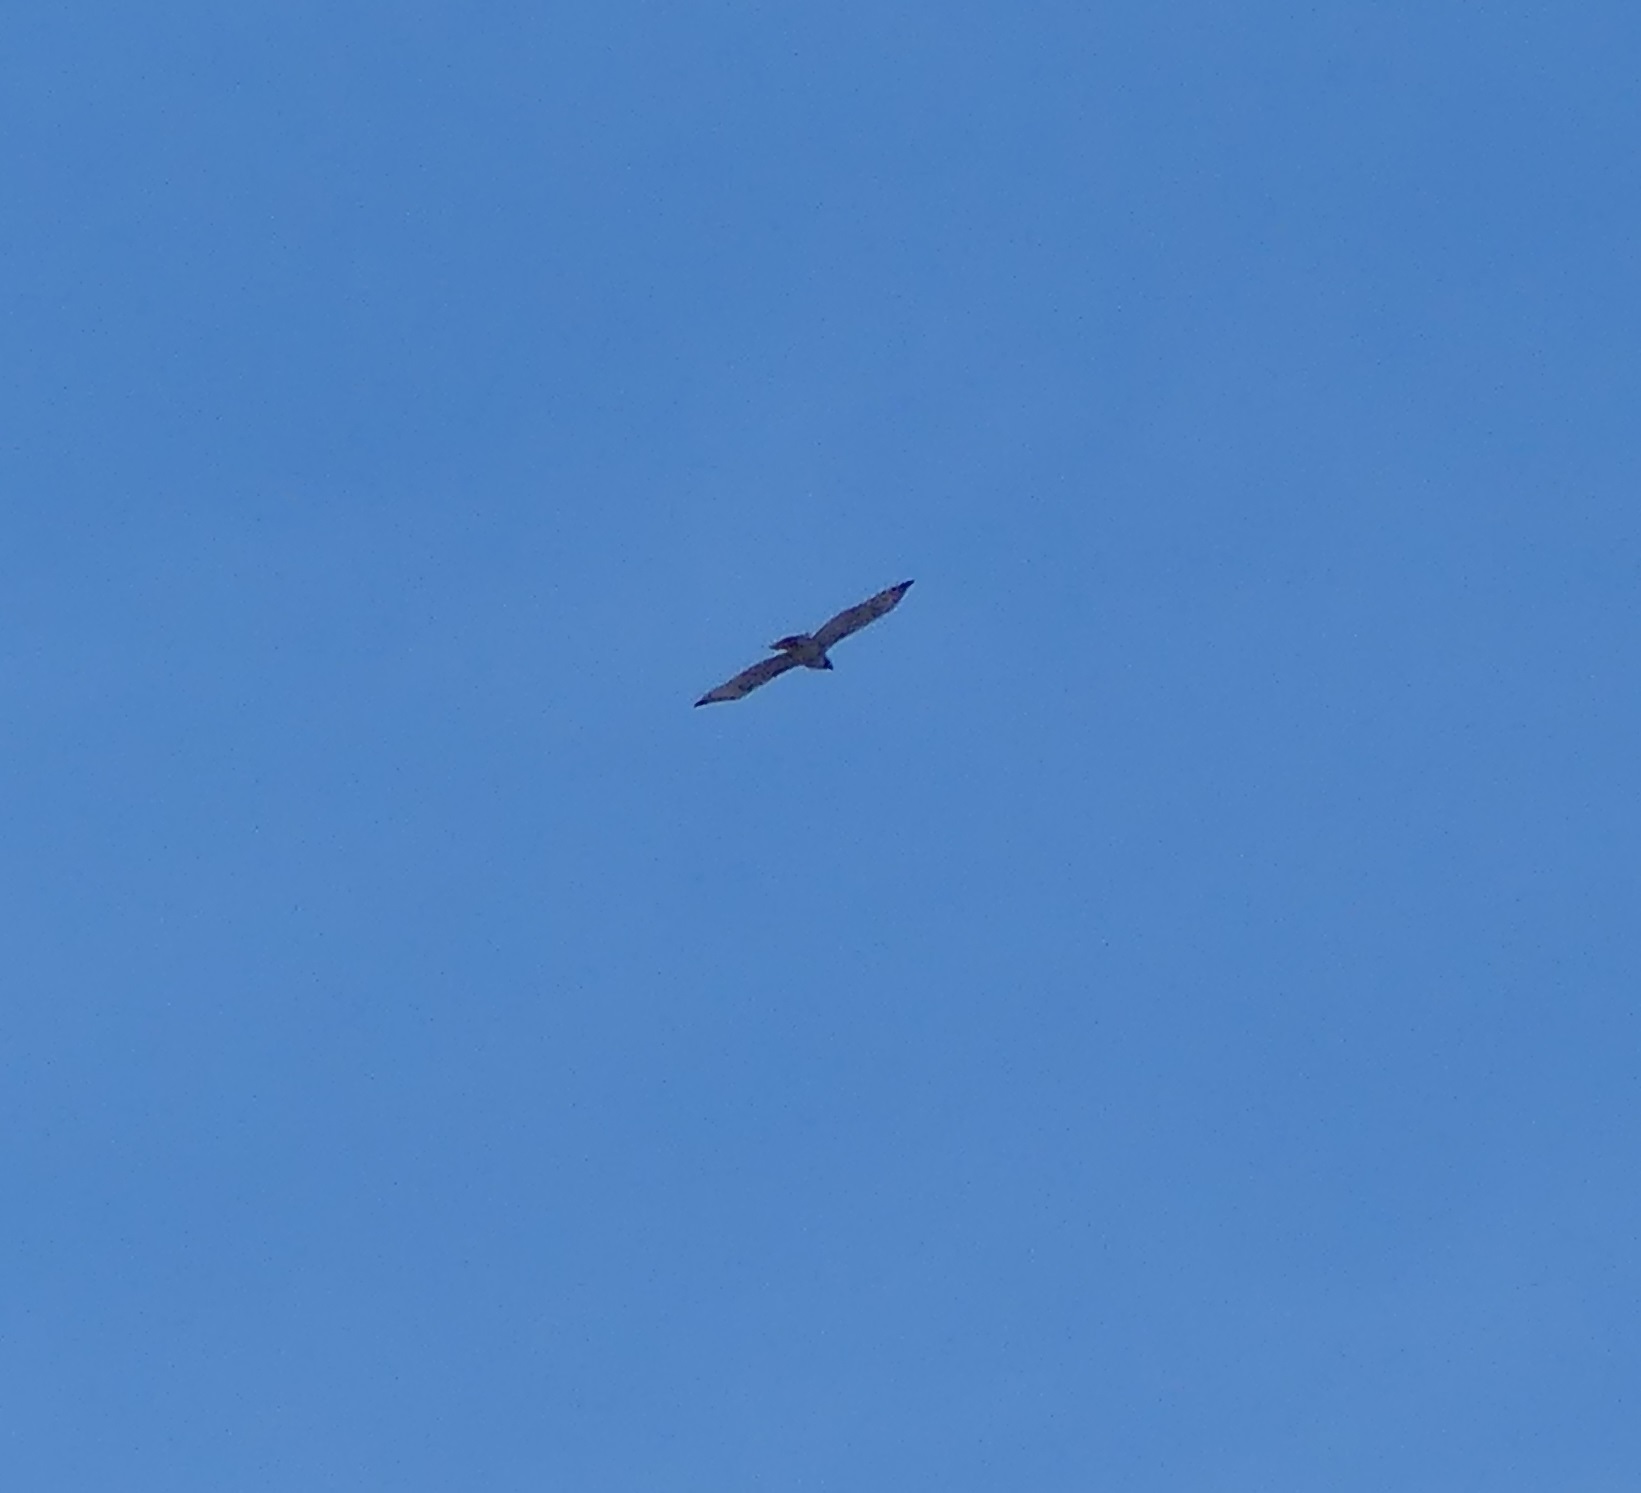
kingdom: Animalia
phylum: Chordata
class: Aves
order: Accipitriformes
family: Accipitridae
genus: Buteo
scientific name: Buteo jamaicensis
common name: Red-tailed hawk
